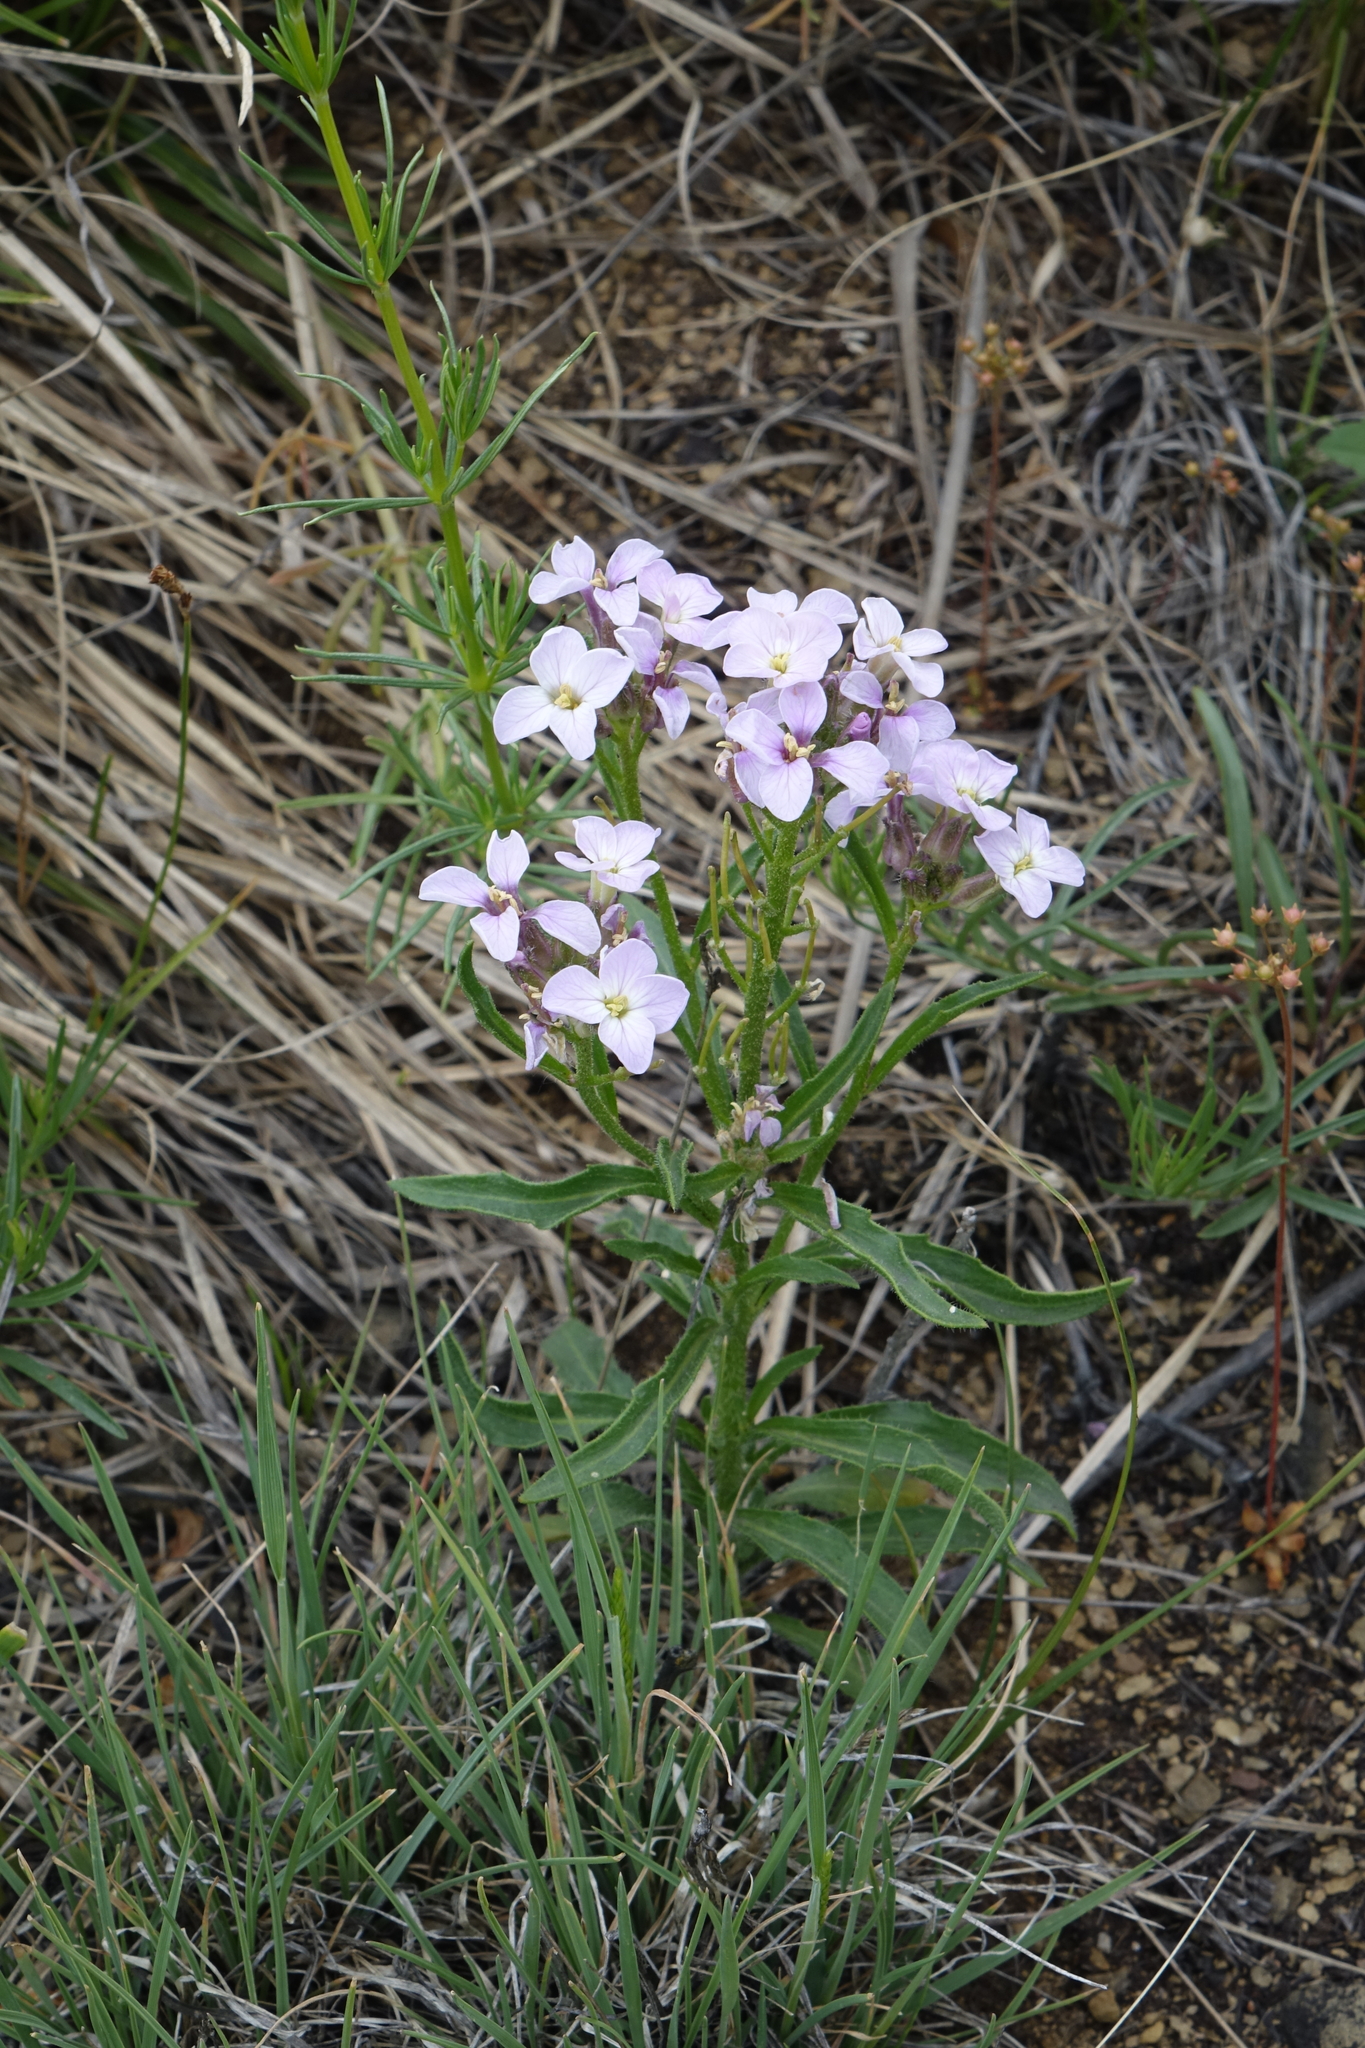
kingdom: Plantae
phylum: Tracheophyta
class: Magnoliopsida
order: Brassicales
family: Brassicaceae
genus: Clausia
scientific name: Clausia aprica
